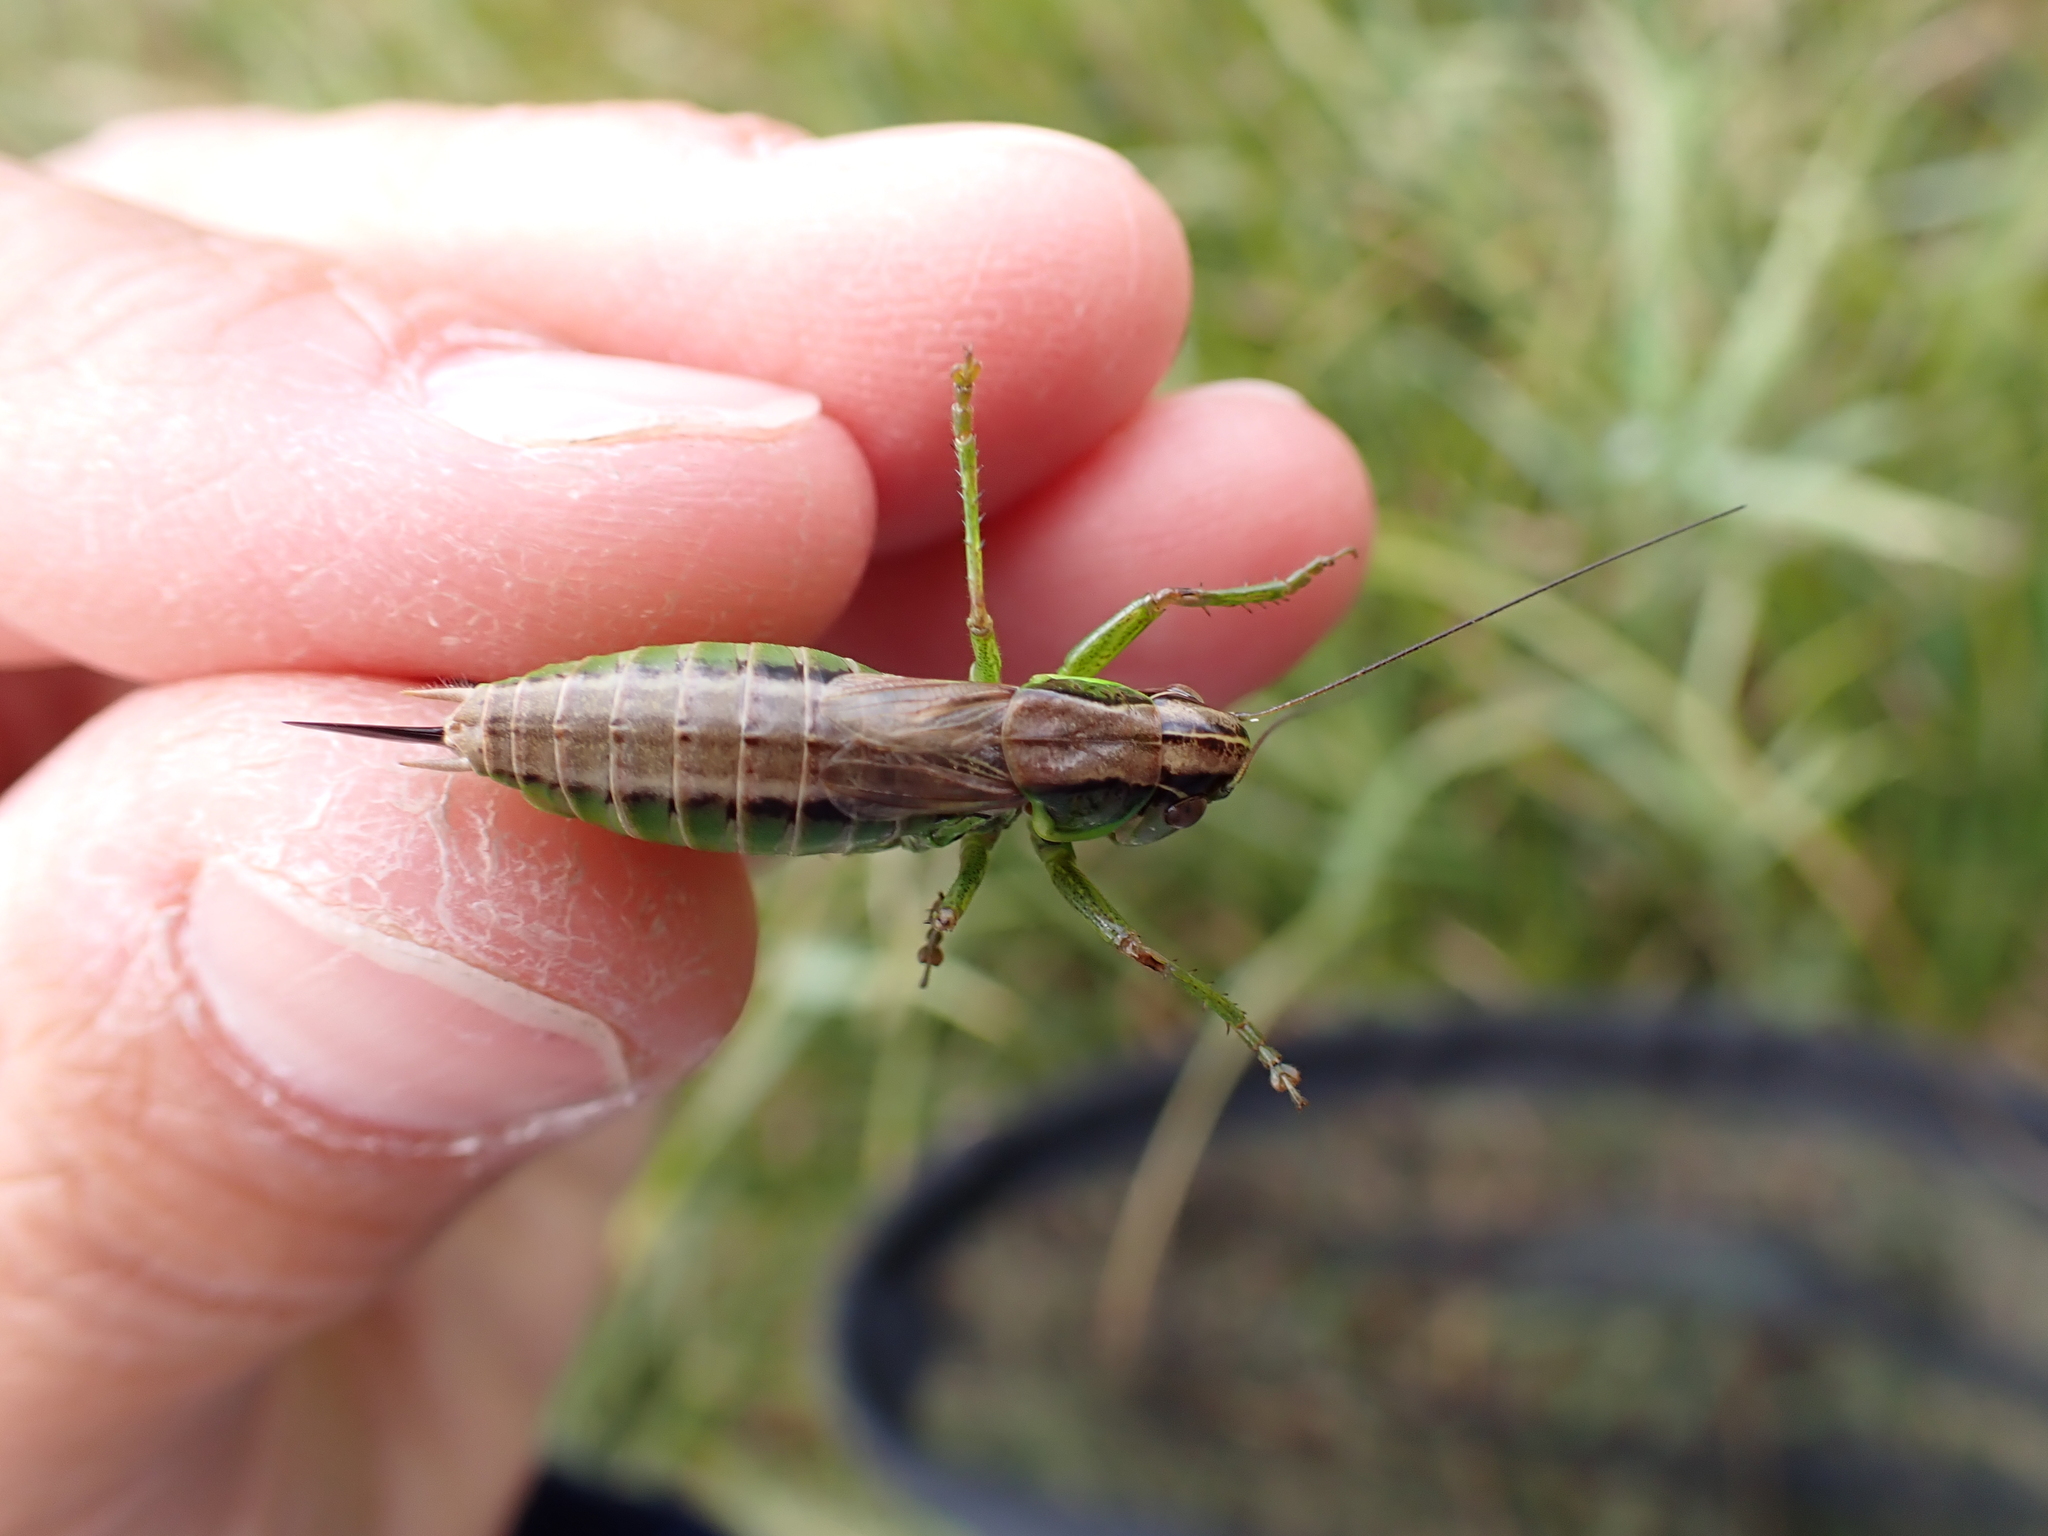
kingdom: Animalia
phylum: Arthropoda
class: Insecta
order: Orthoptera
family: Tettigoniidae
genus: Roeseliana
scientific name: Roeseliana roeselii
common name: Roesel's bush cricket
